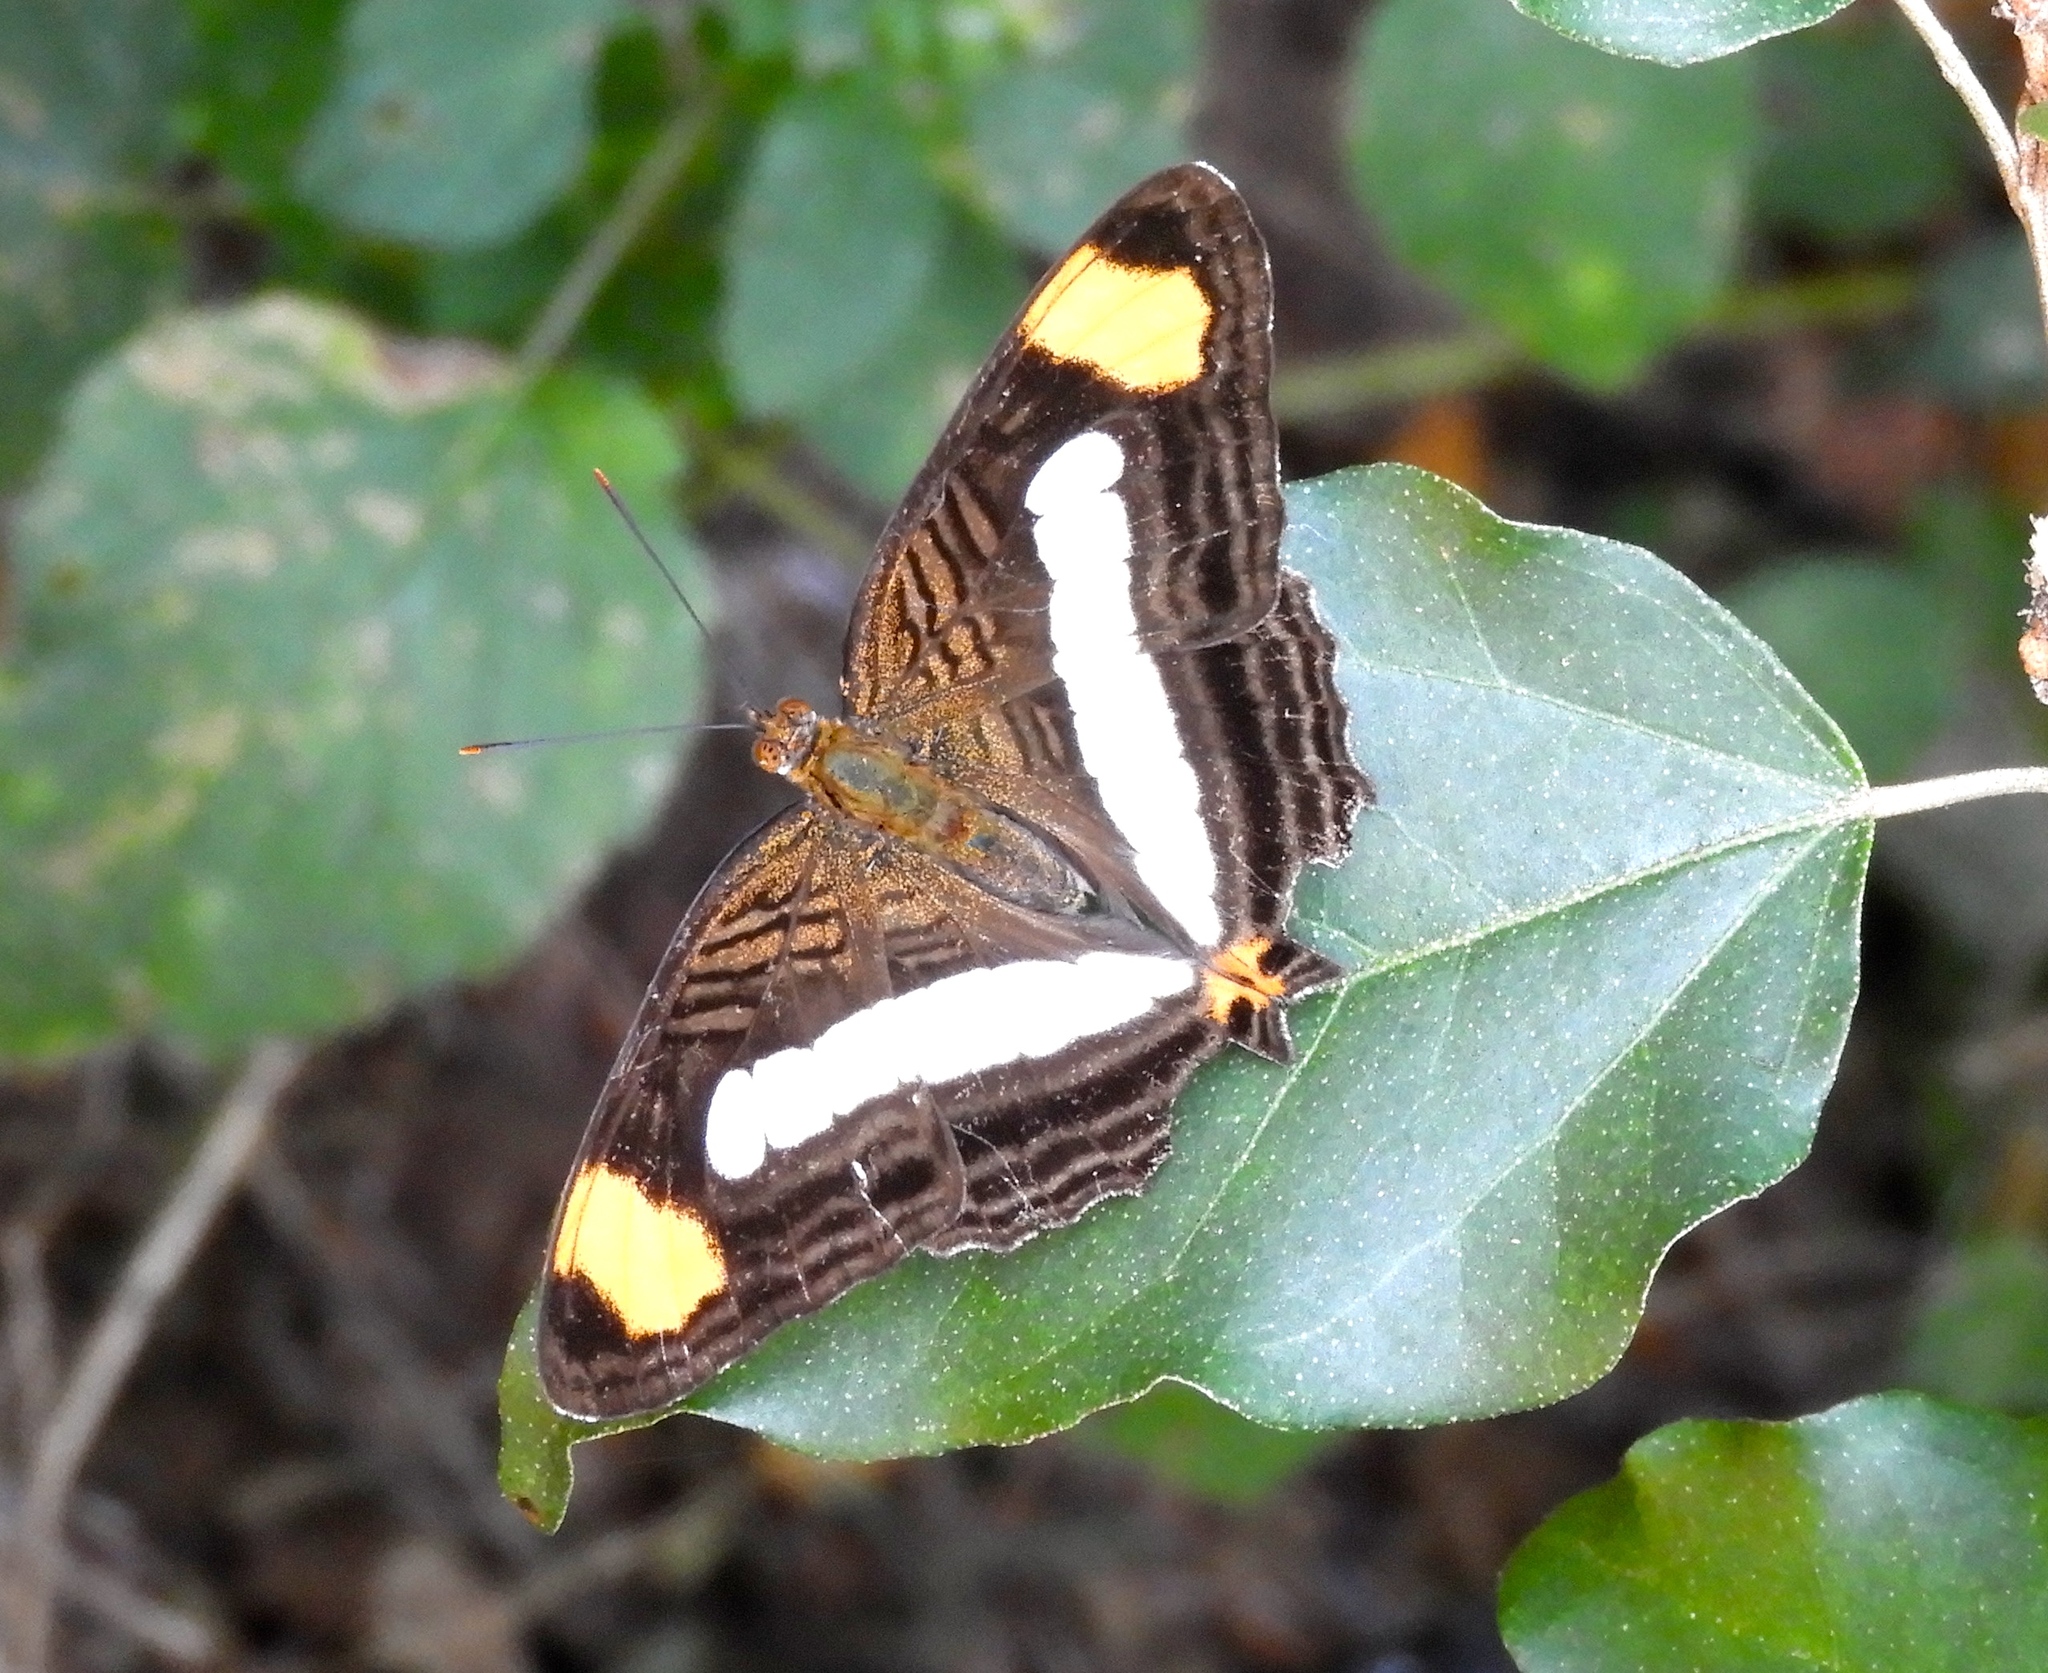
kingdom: Animalia
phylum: Arthropoda
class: Insecta
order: Lepidoptera
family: Nymphalidae
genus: Limenitis
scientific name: Limenitis
